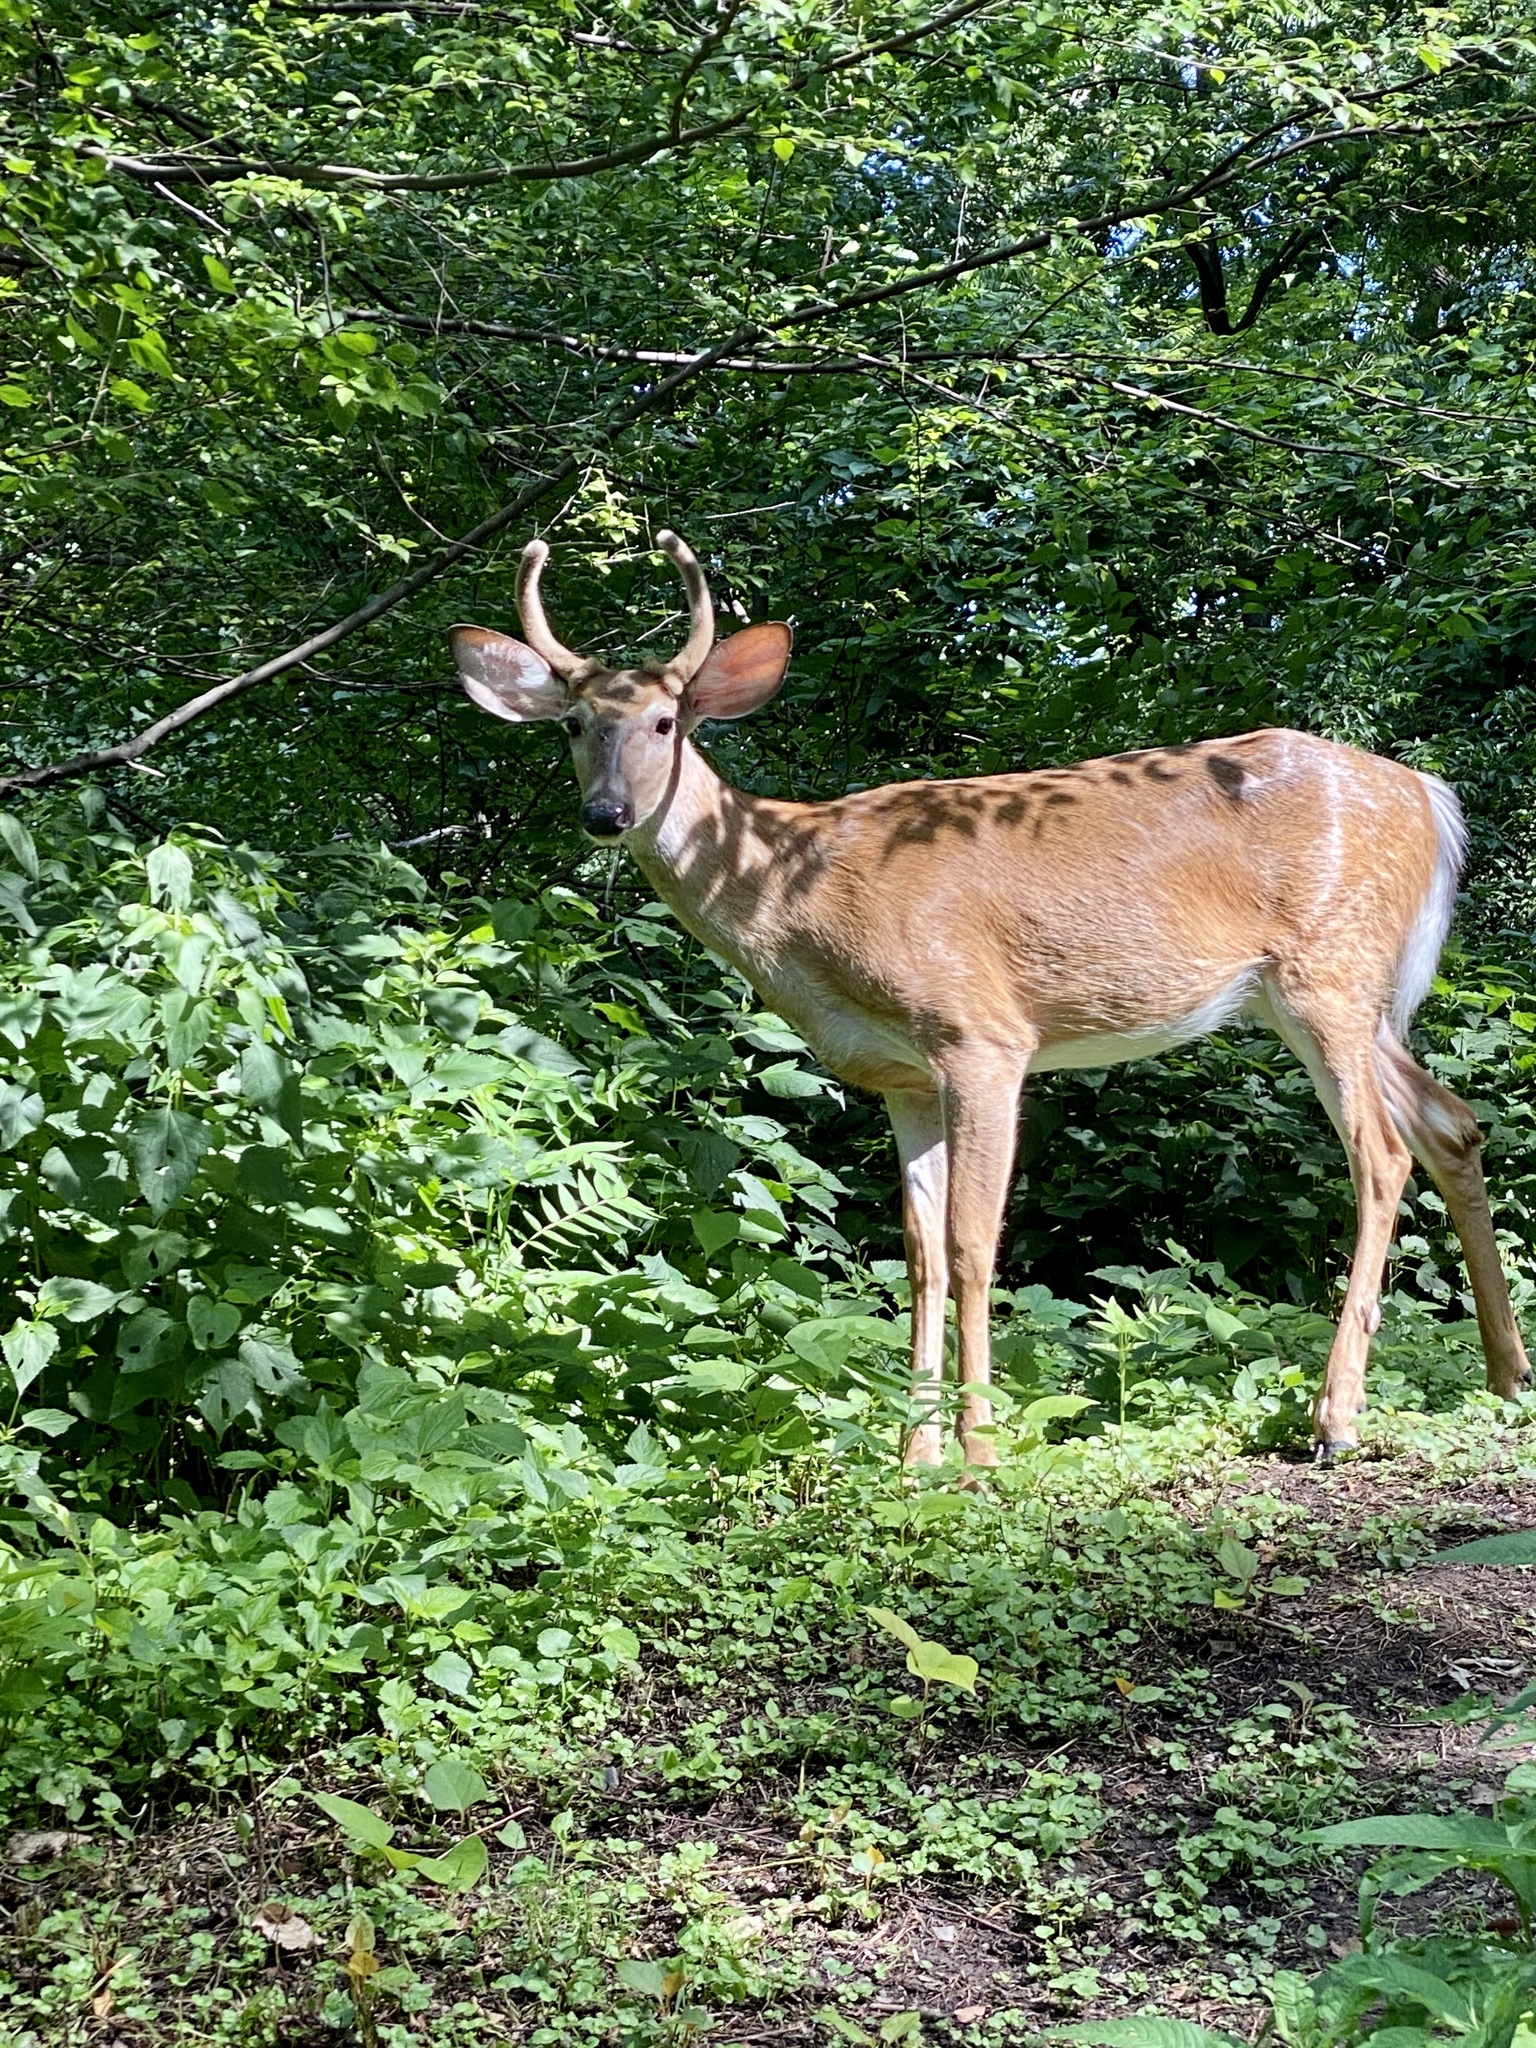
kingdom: Animalia
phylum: Chordata
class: Mammalia
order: Artiodactyla
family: Cervidae
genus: Odocoileus
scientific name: Odocoileus virginianus
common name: White-tailed deer
